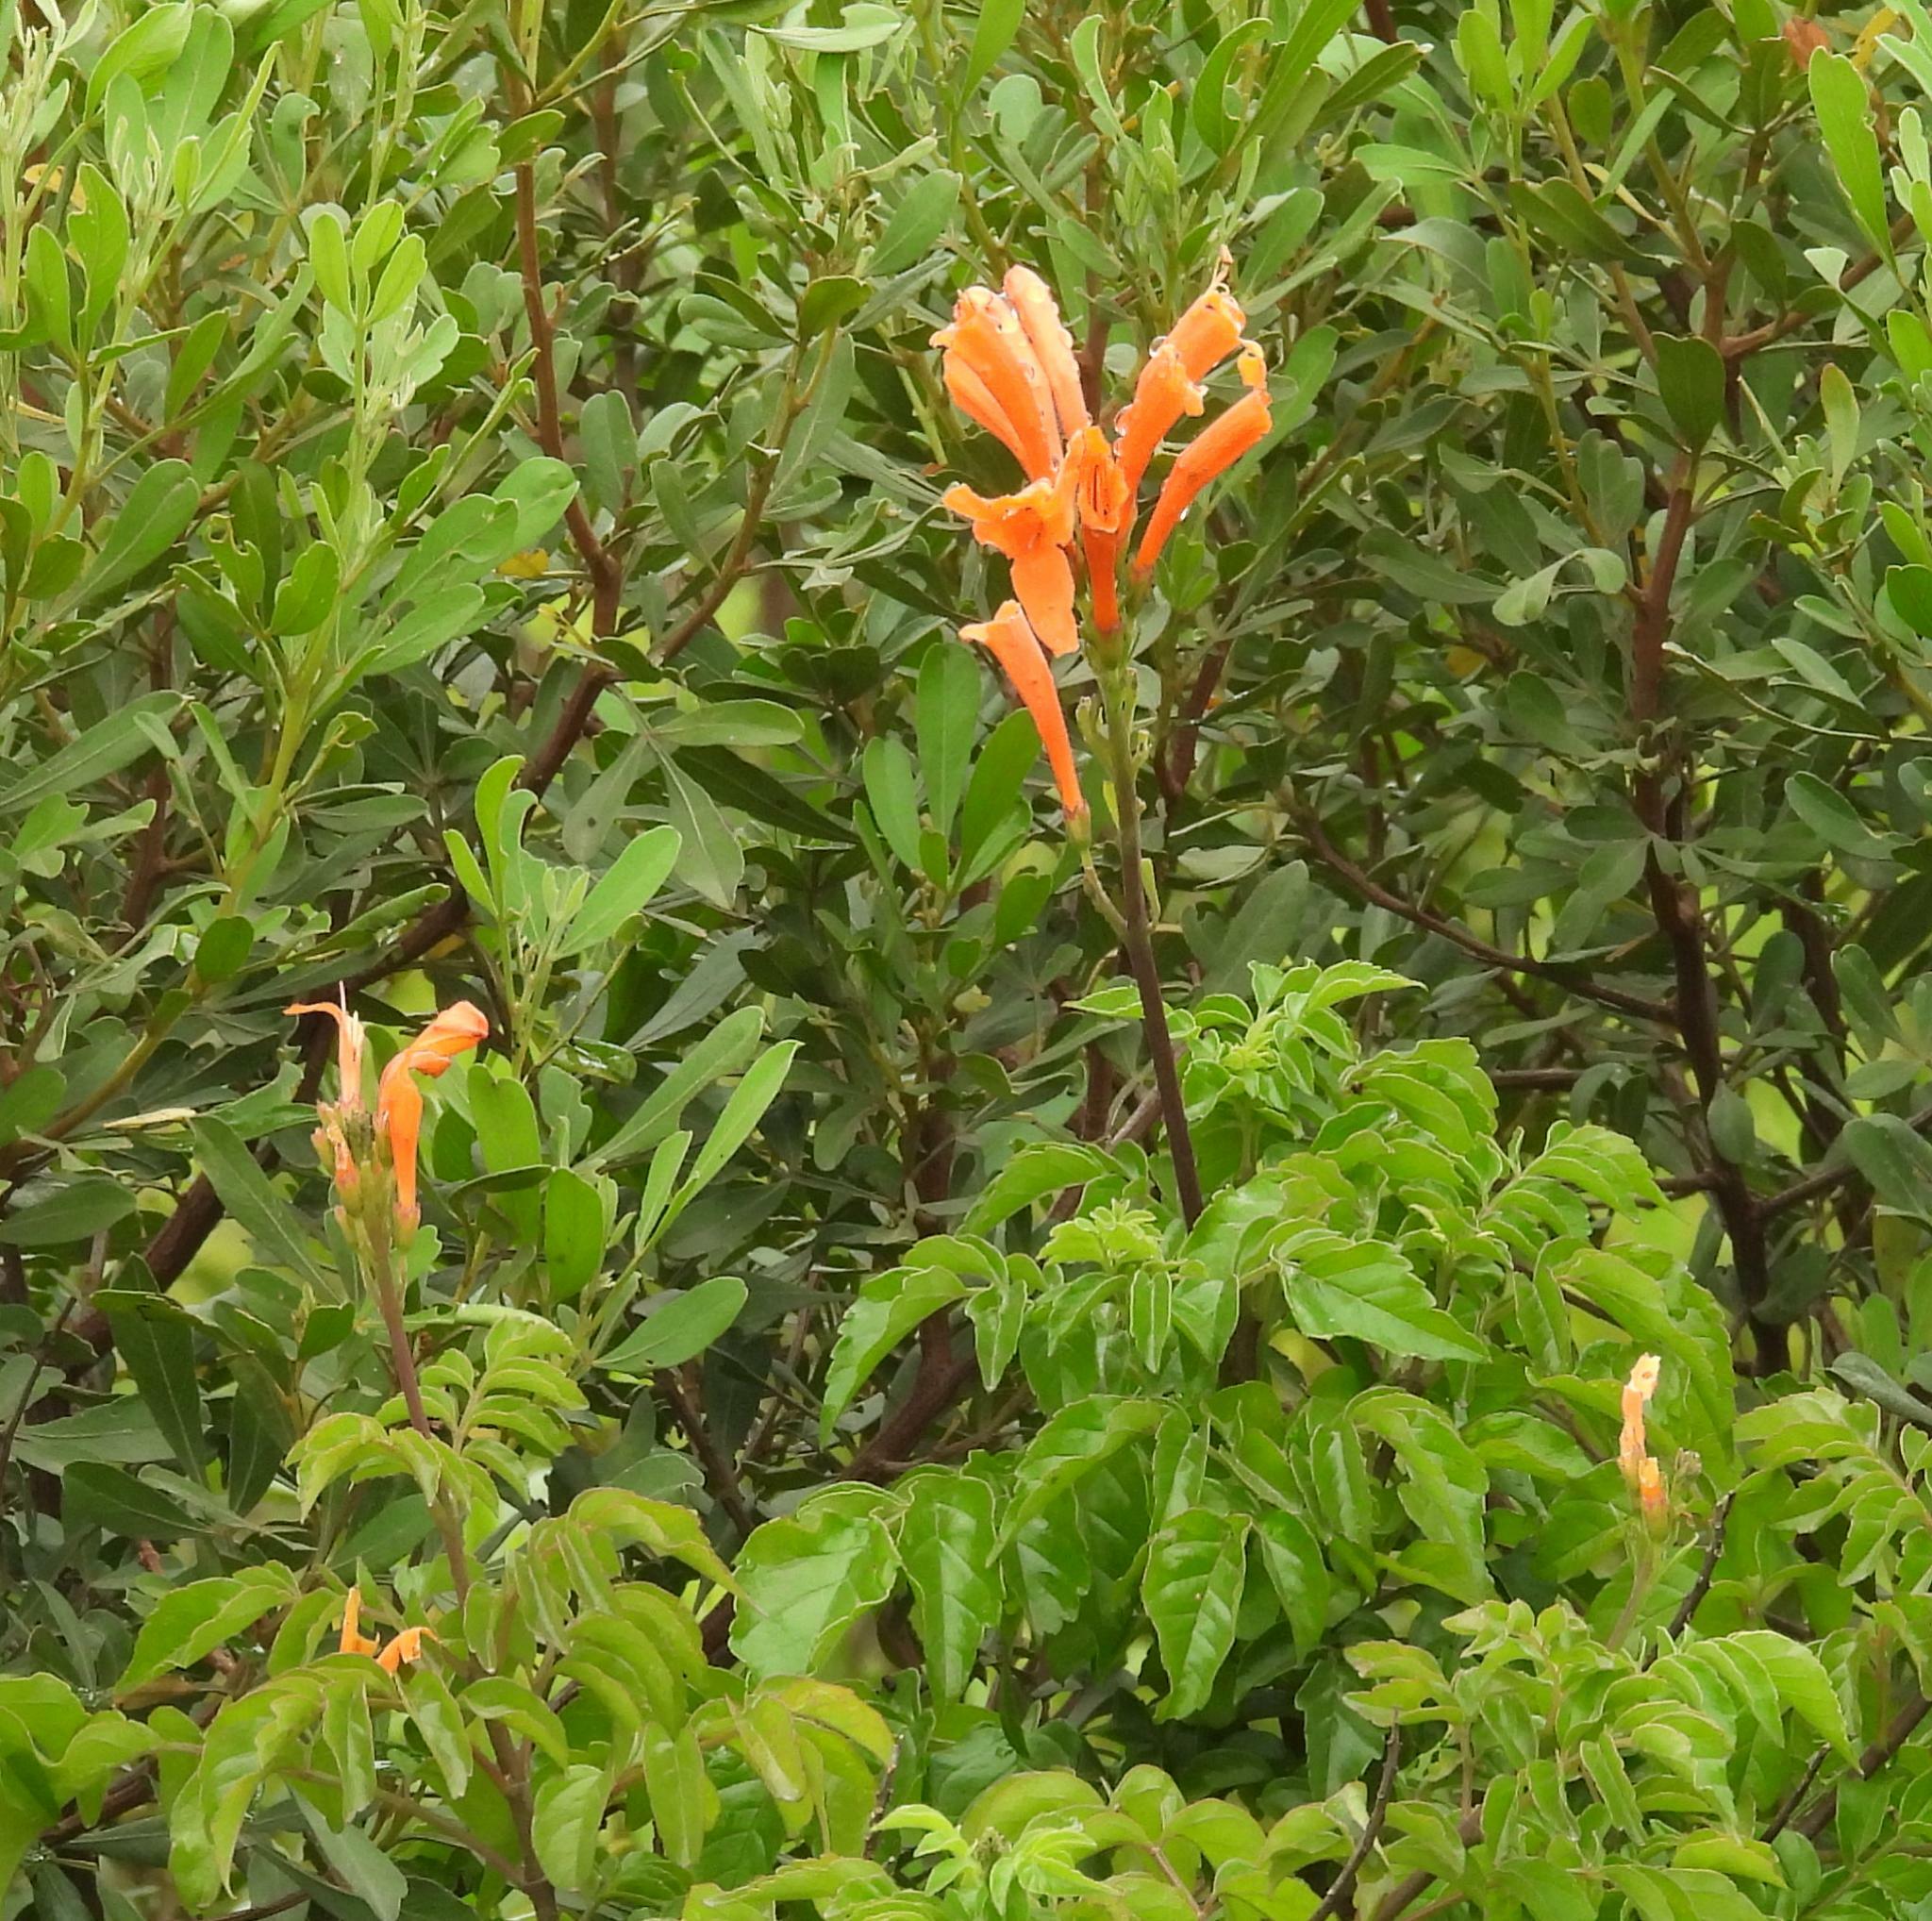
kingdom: Plantae
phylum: Tracheophyta
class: Magnoliopsida
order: Lamiales
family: Bignoniaceae
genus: Tecomaria
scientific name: Tecomaria capensis
